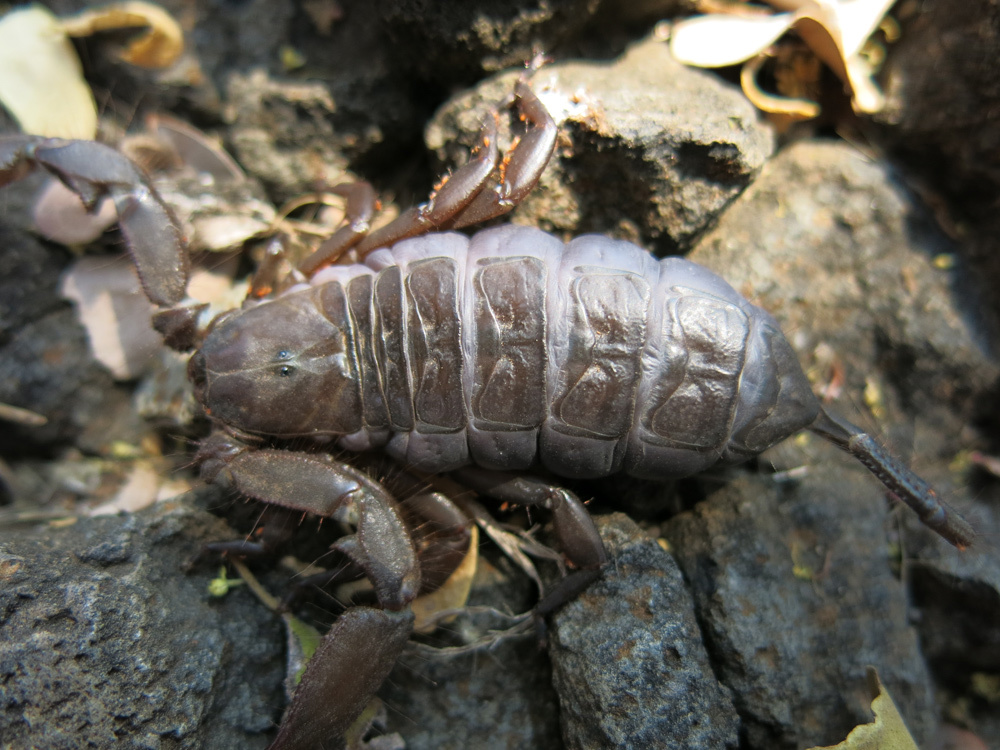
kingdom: Animalia
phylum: Arthropoda
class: Arachnida
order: Scorpiones
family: Hormuridae
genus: Hadogenes
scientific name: Hadogenes troglodytes
